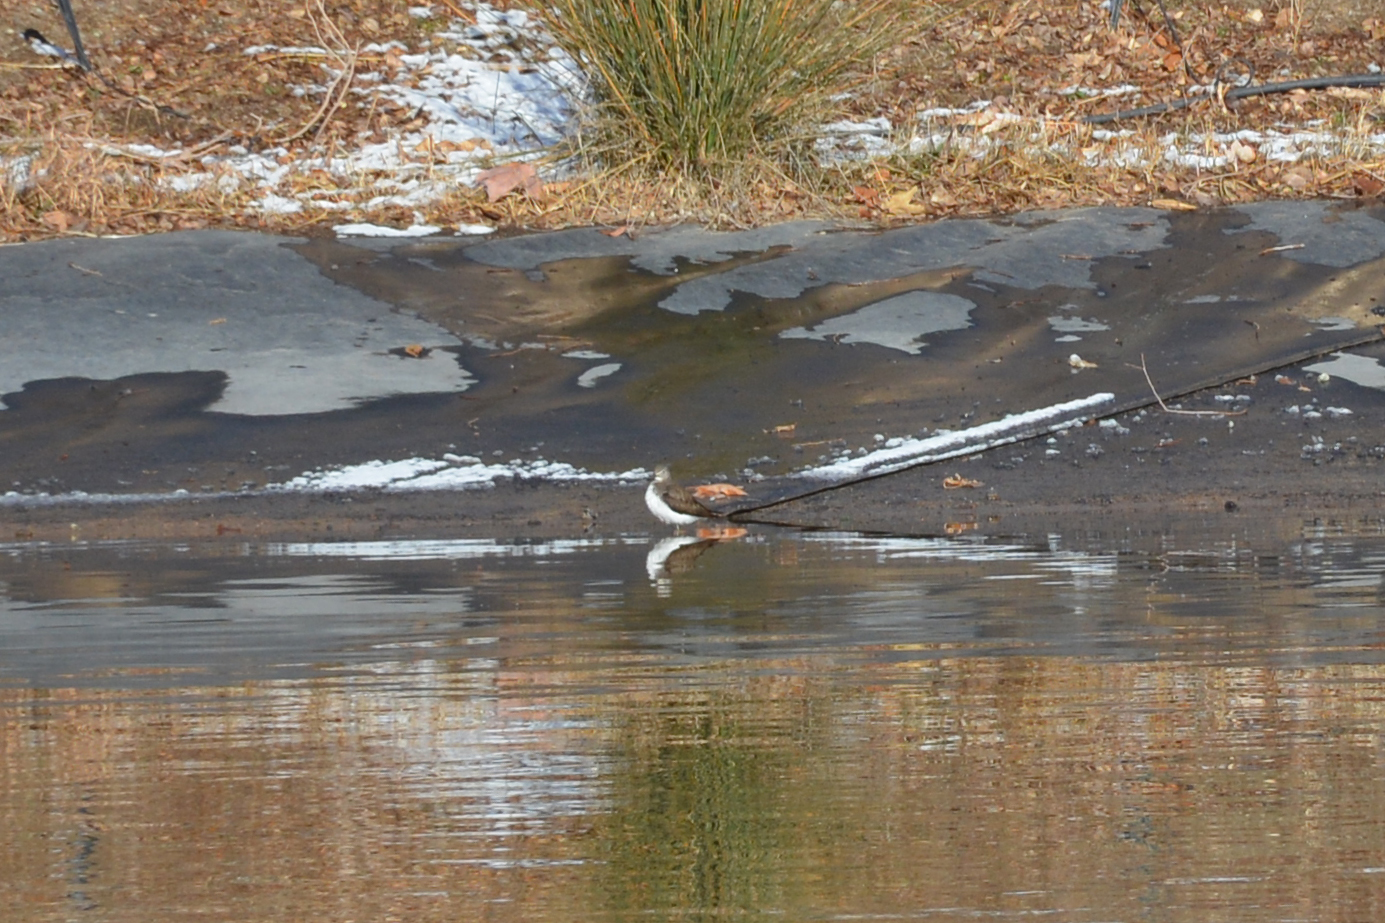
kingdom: Animalia
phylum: Chordata
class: Aves
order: Charadriiformes
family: Scolopacidae
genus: Actitis
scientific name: Actitis hypoleucos
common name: Common sandpiper
